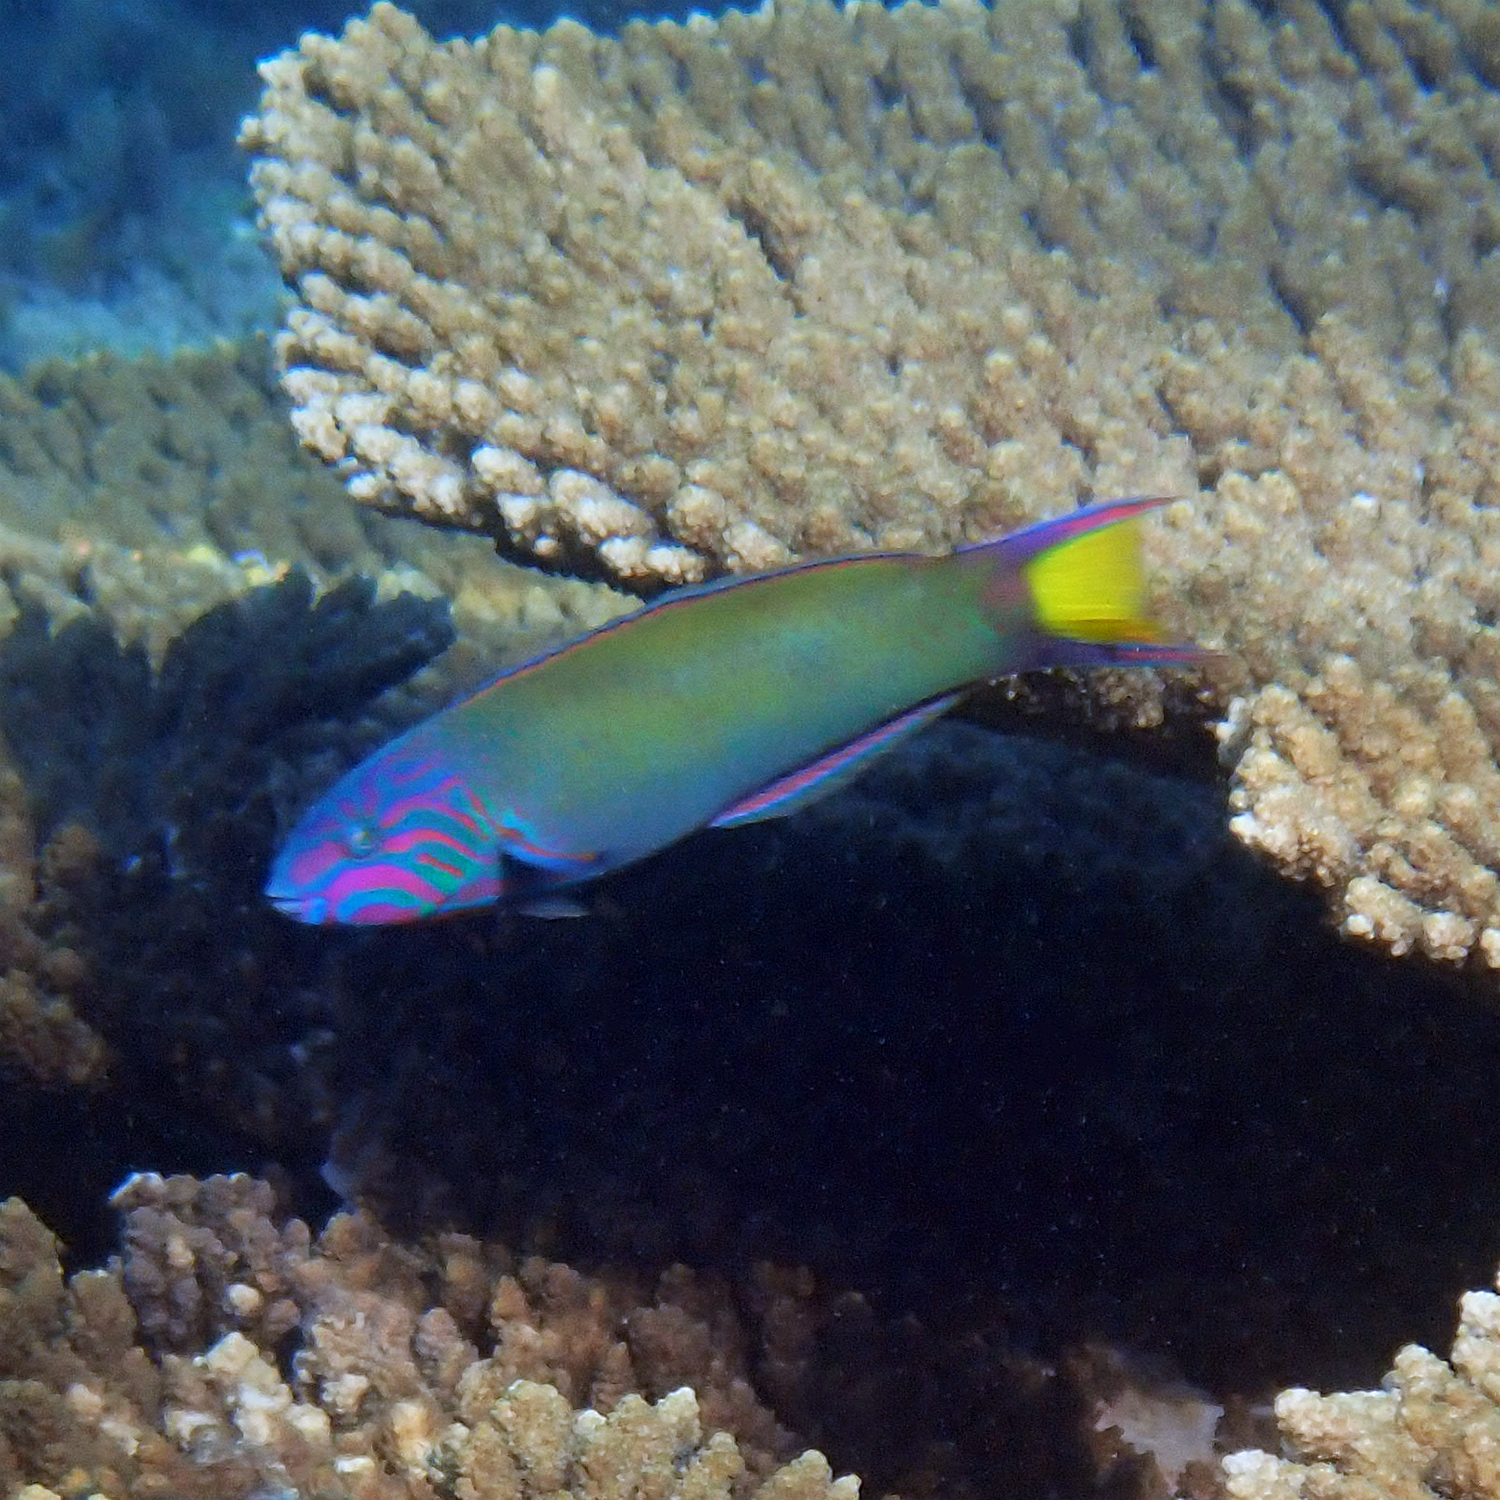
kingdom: Animalia
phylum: Chordata
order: Perciformes
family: Labridae
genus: Thalassoma
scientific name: Thalassoma lunare
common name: Blue wrasse
